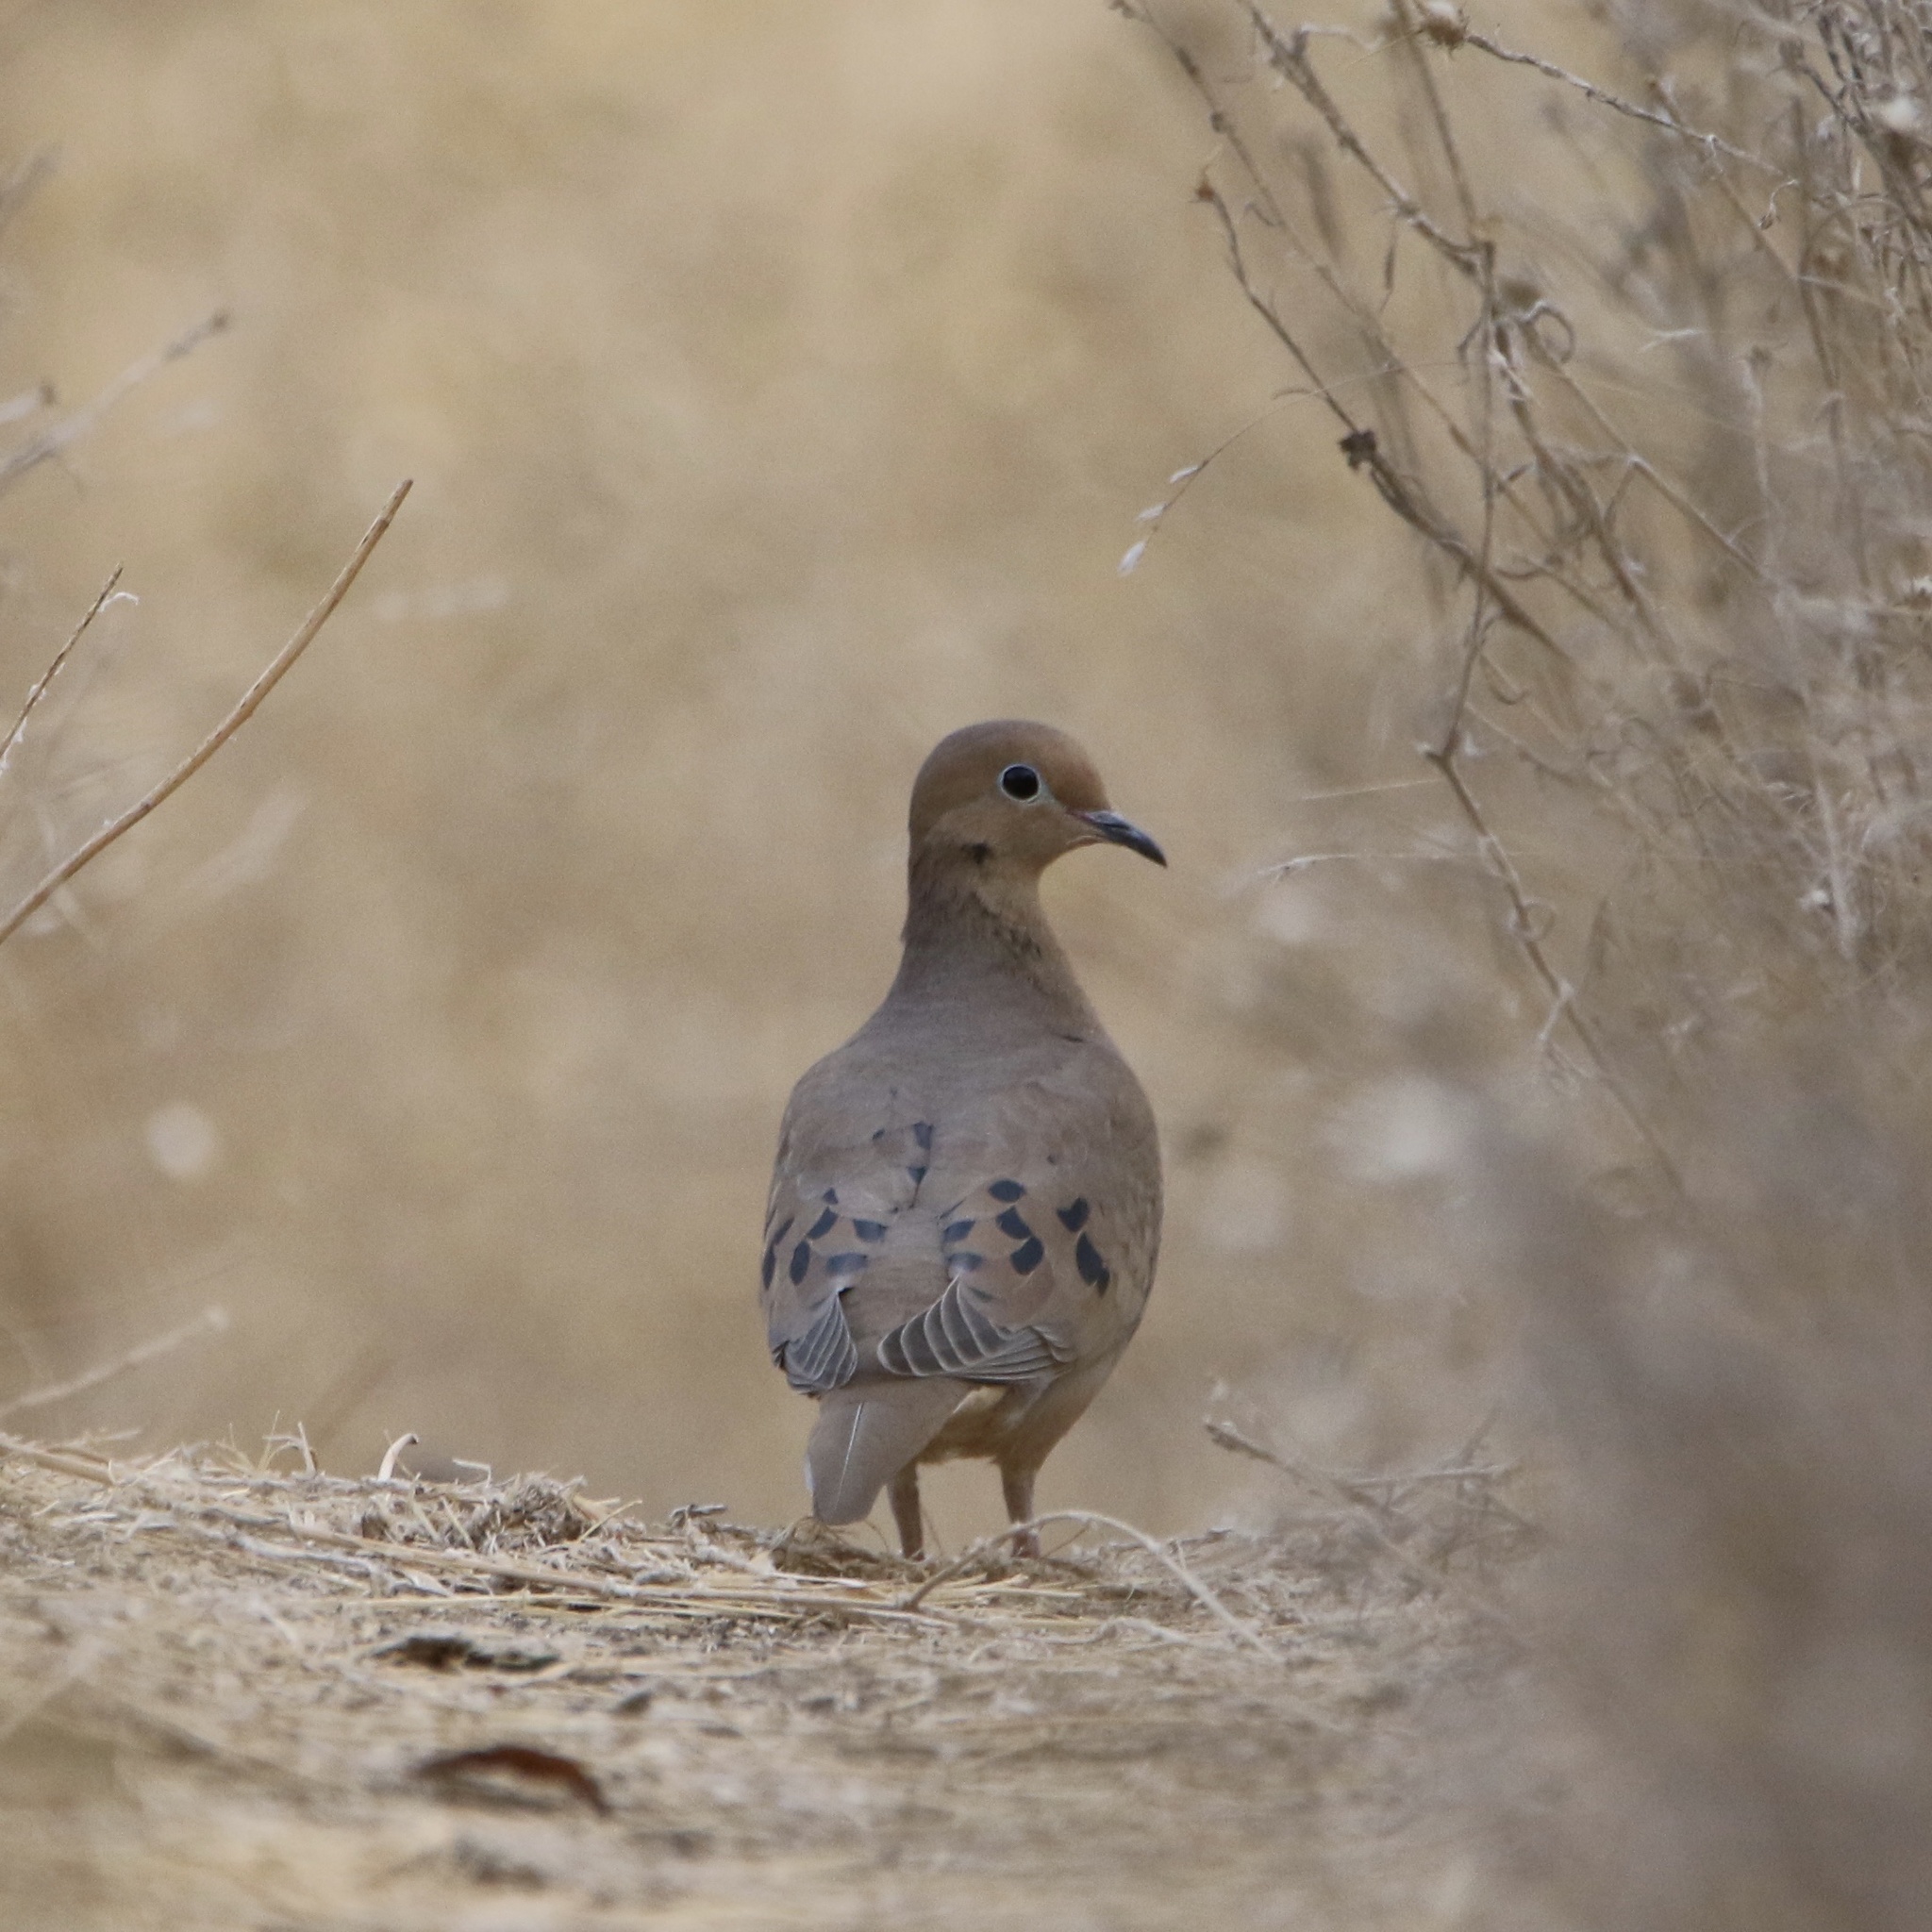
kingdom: Animalia
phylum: Chordata
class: Aves
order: Columbiformes
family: Columbidae
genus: Zenaida
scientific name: Zenaida macroura
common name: Mourning dove
